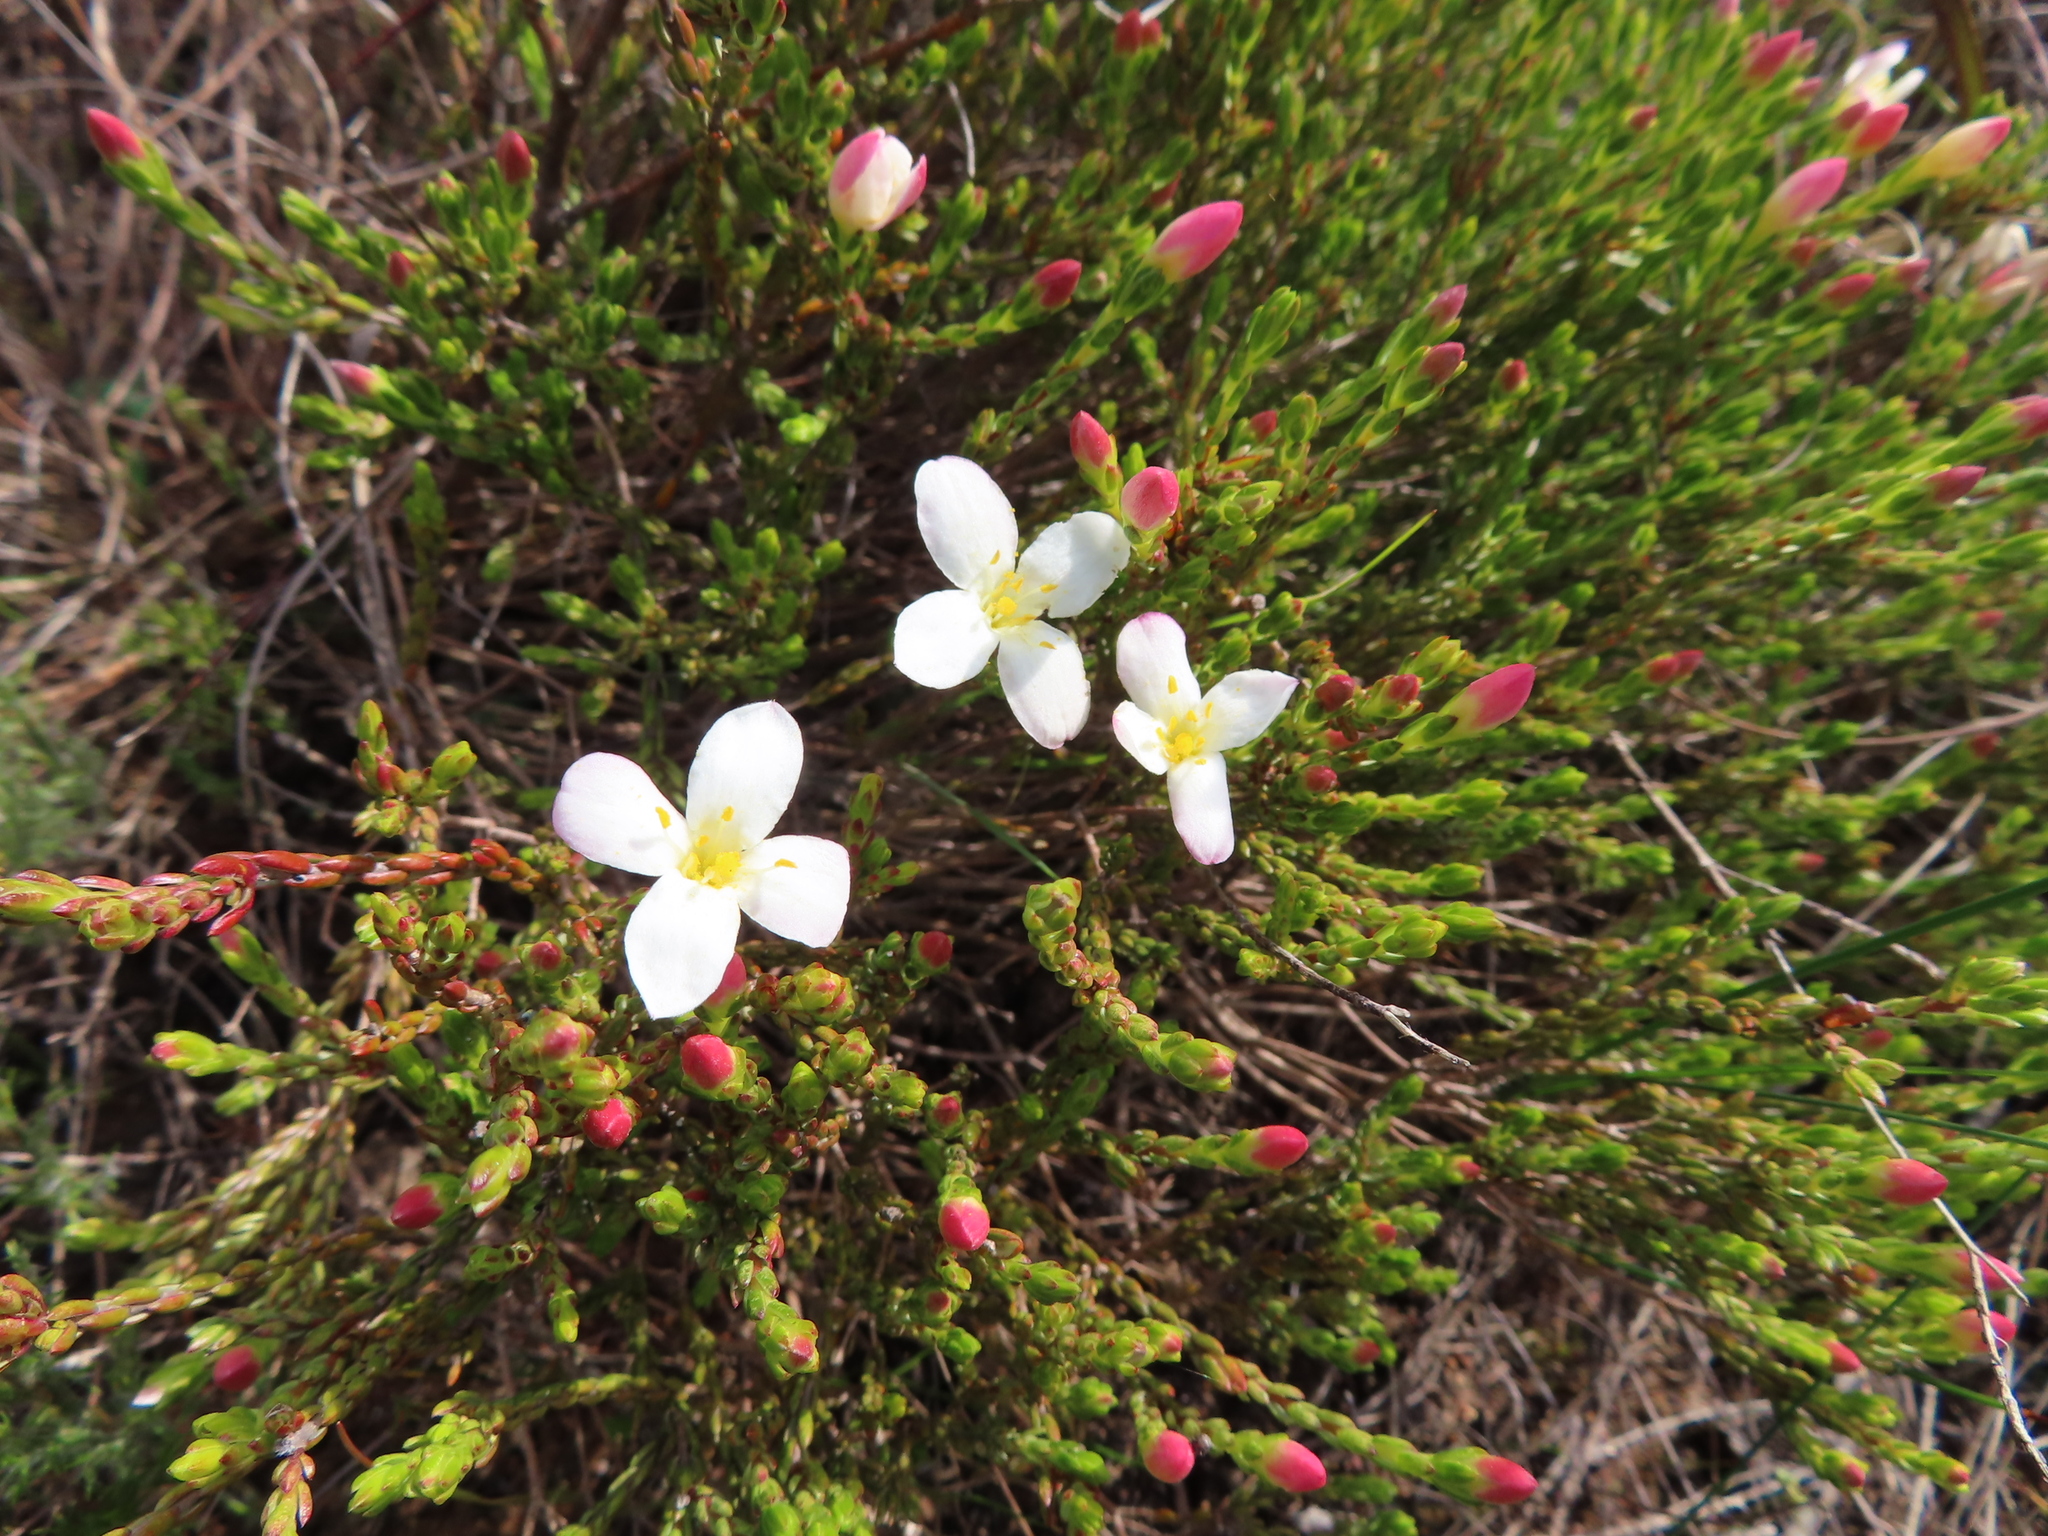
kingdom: Plantae
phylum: Tracheophyta
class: Magnoliopsida
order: Malvales
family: Thymelaeaceae
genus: Lachnaea
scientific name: Lachnaea grandiflora
